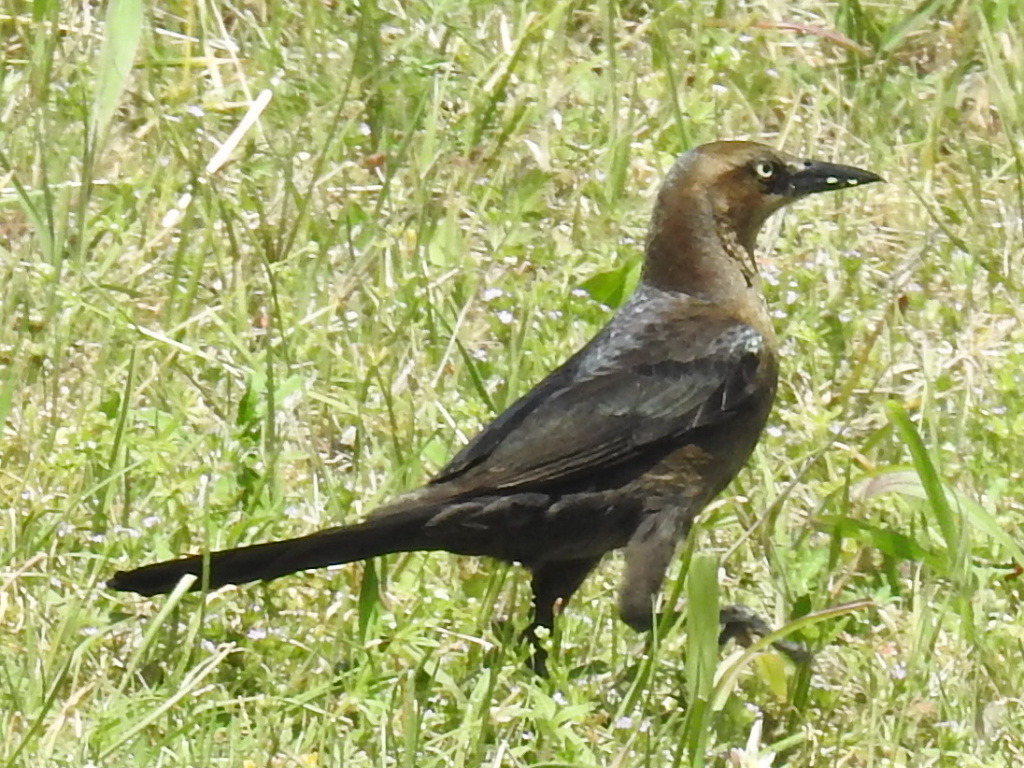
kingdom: Animalia
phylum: Chordata
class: Aves
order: Passeriformes
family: Icteridae
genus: Quiscalus
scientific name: Quiscalus mexicanus
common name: Great-tailed grackle
